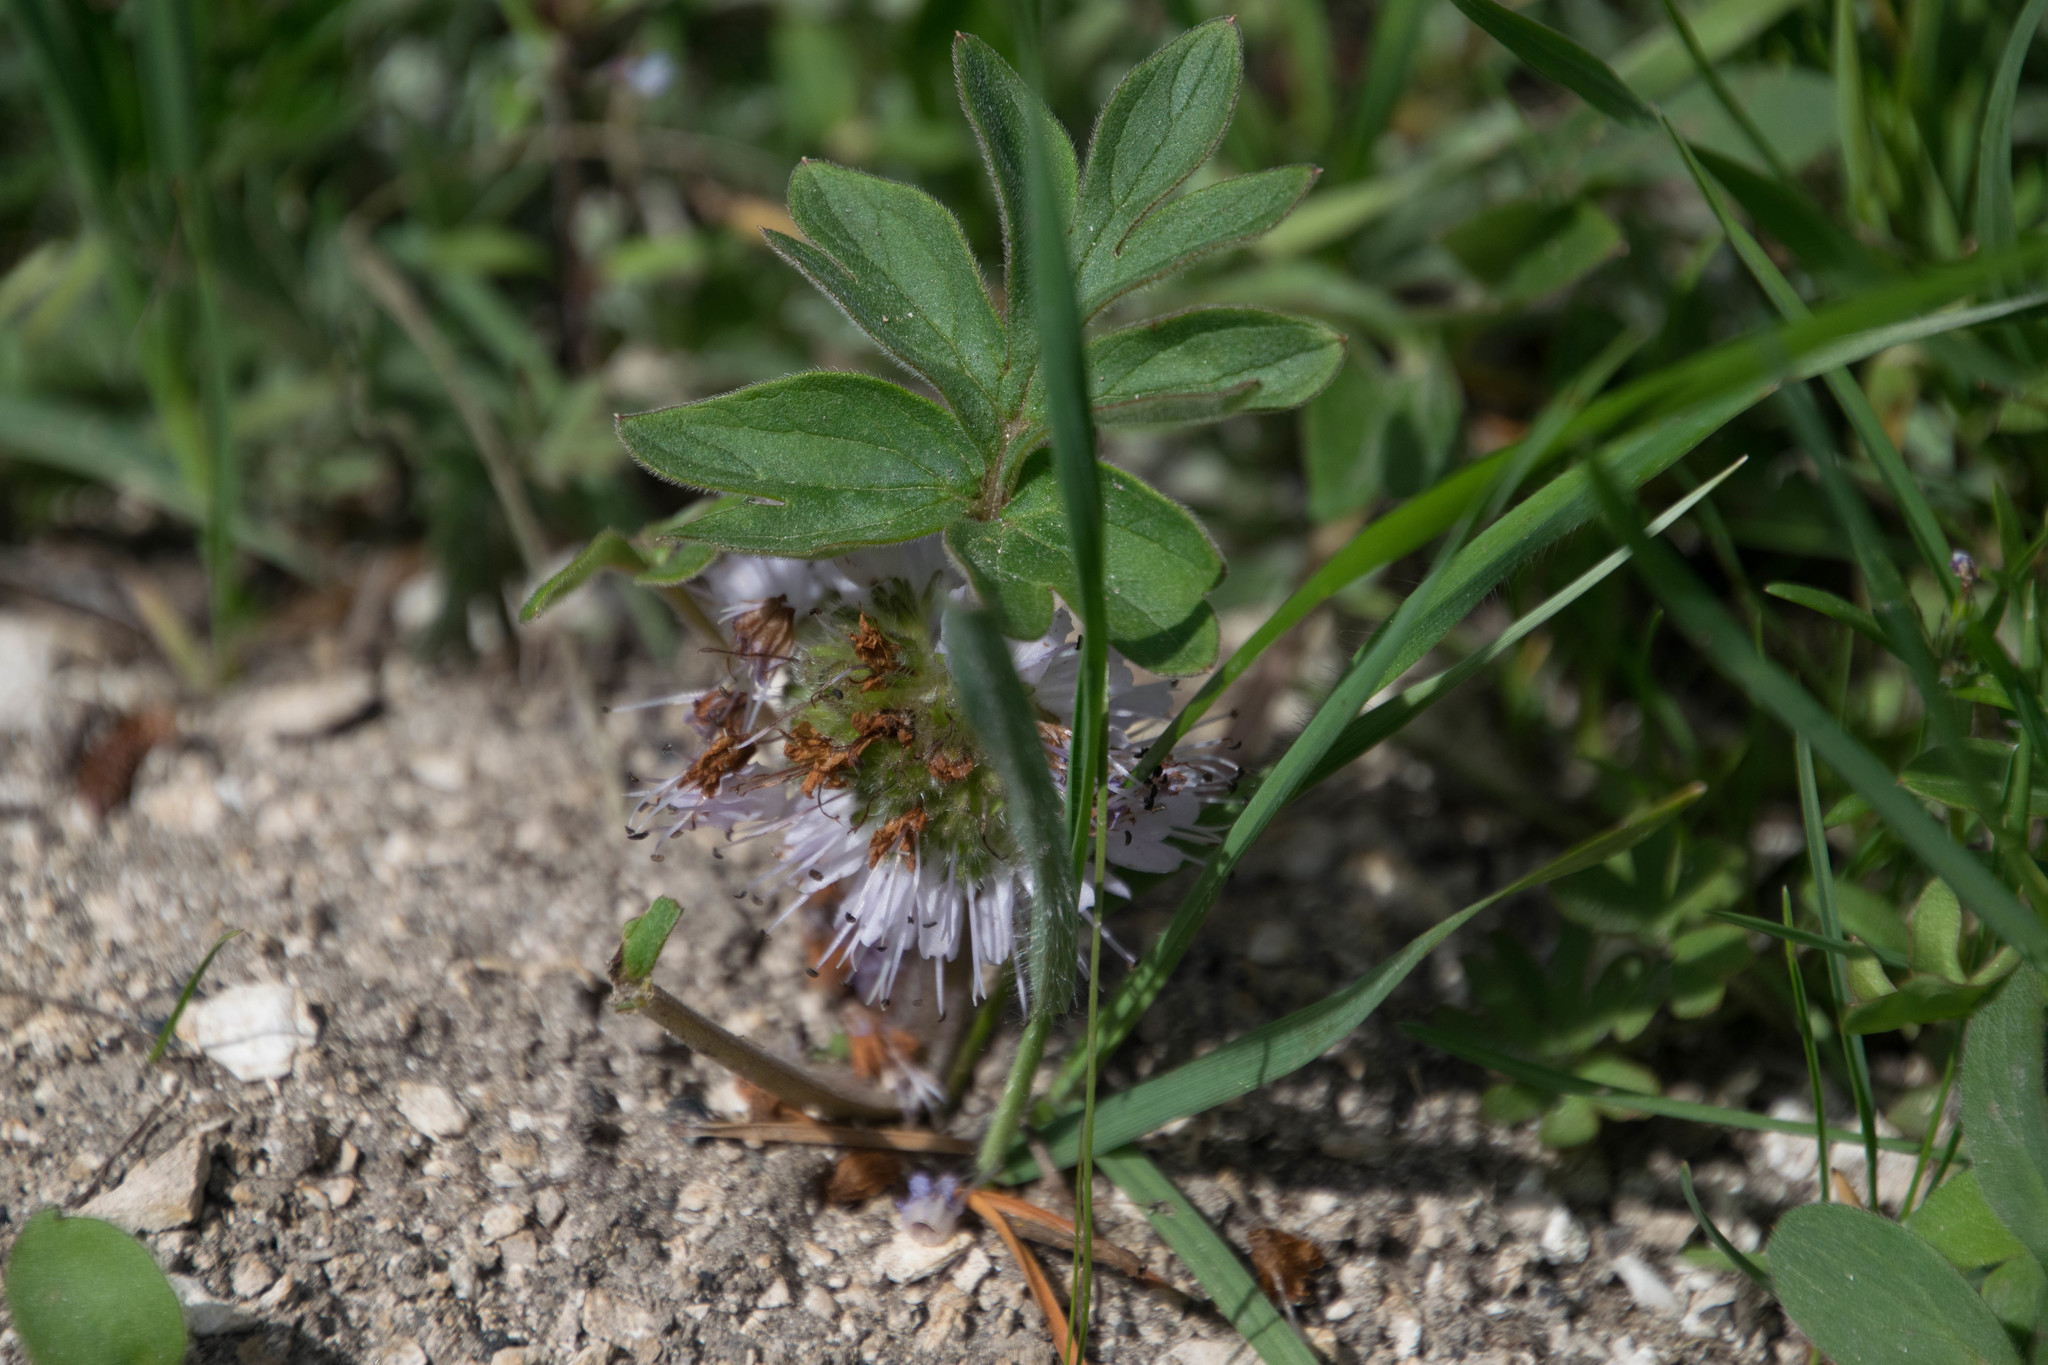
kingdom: Plantae
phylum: Tracheophyta
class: Magnoliopsida
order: Boraginales
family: Hydrophyllaceae
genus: Hydrophyllum
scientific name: Hydrophyllum capitatum
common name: Woollen-breeches
